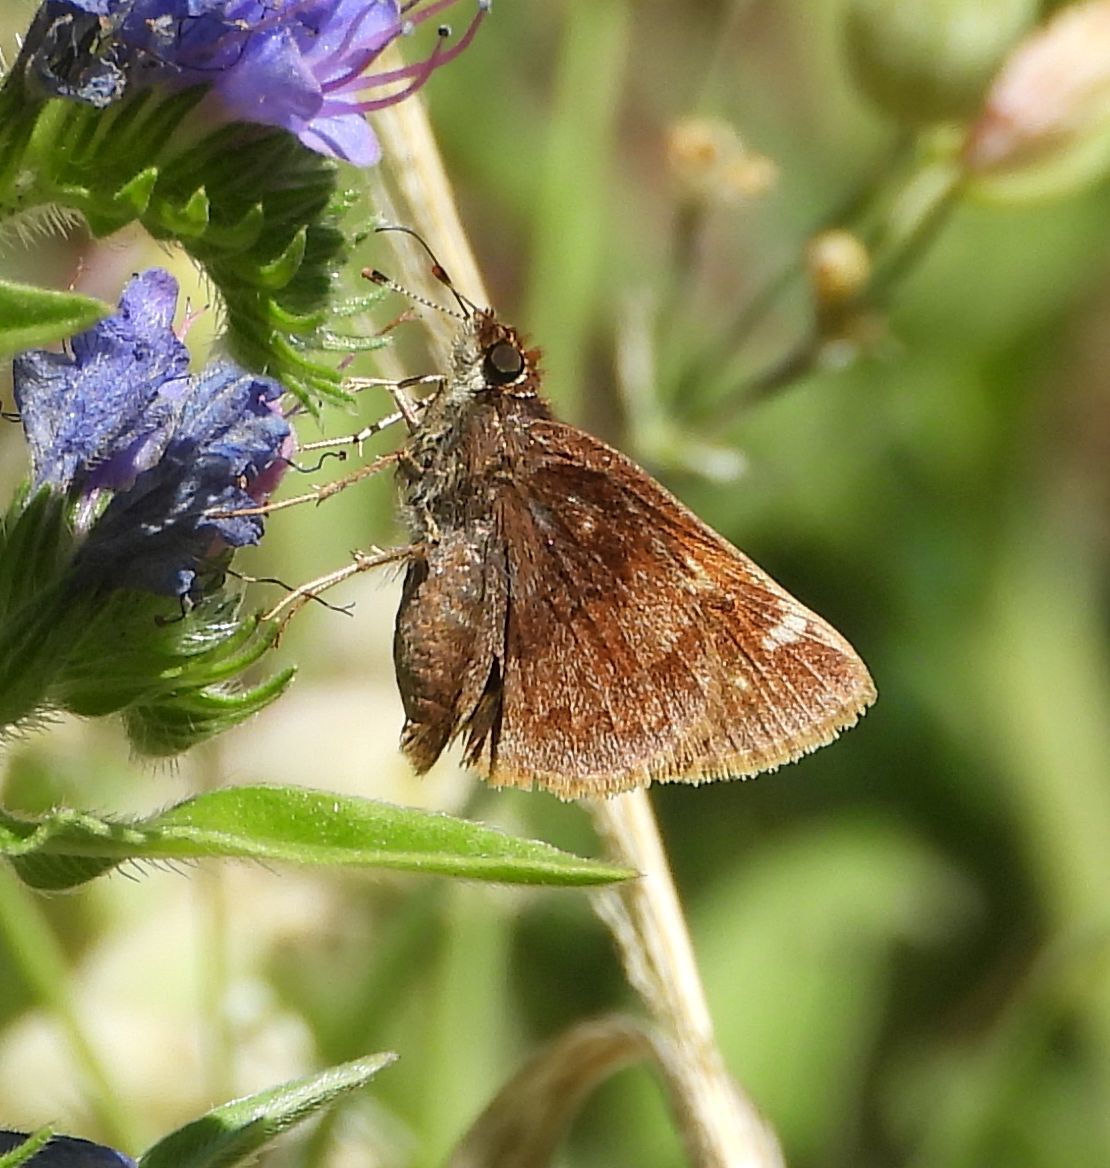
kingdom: Animalia
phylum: Arthropoda
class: Insecta
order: Lepidoptera
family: Hesperiidae
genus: Lon
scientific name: Lon hobomok
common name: Hobomok skipper
